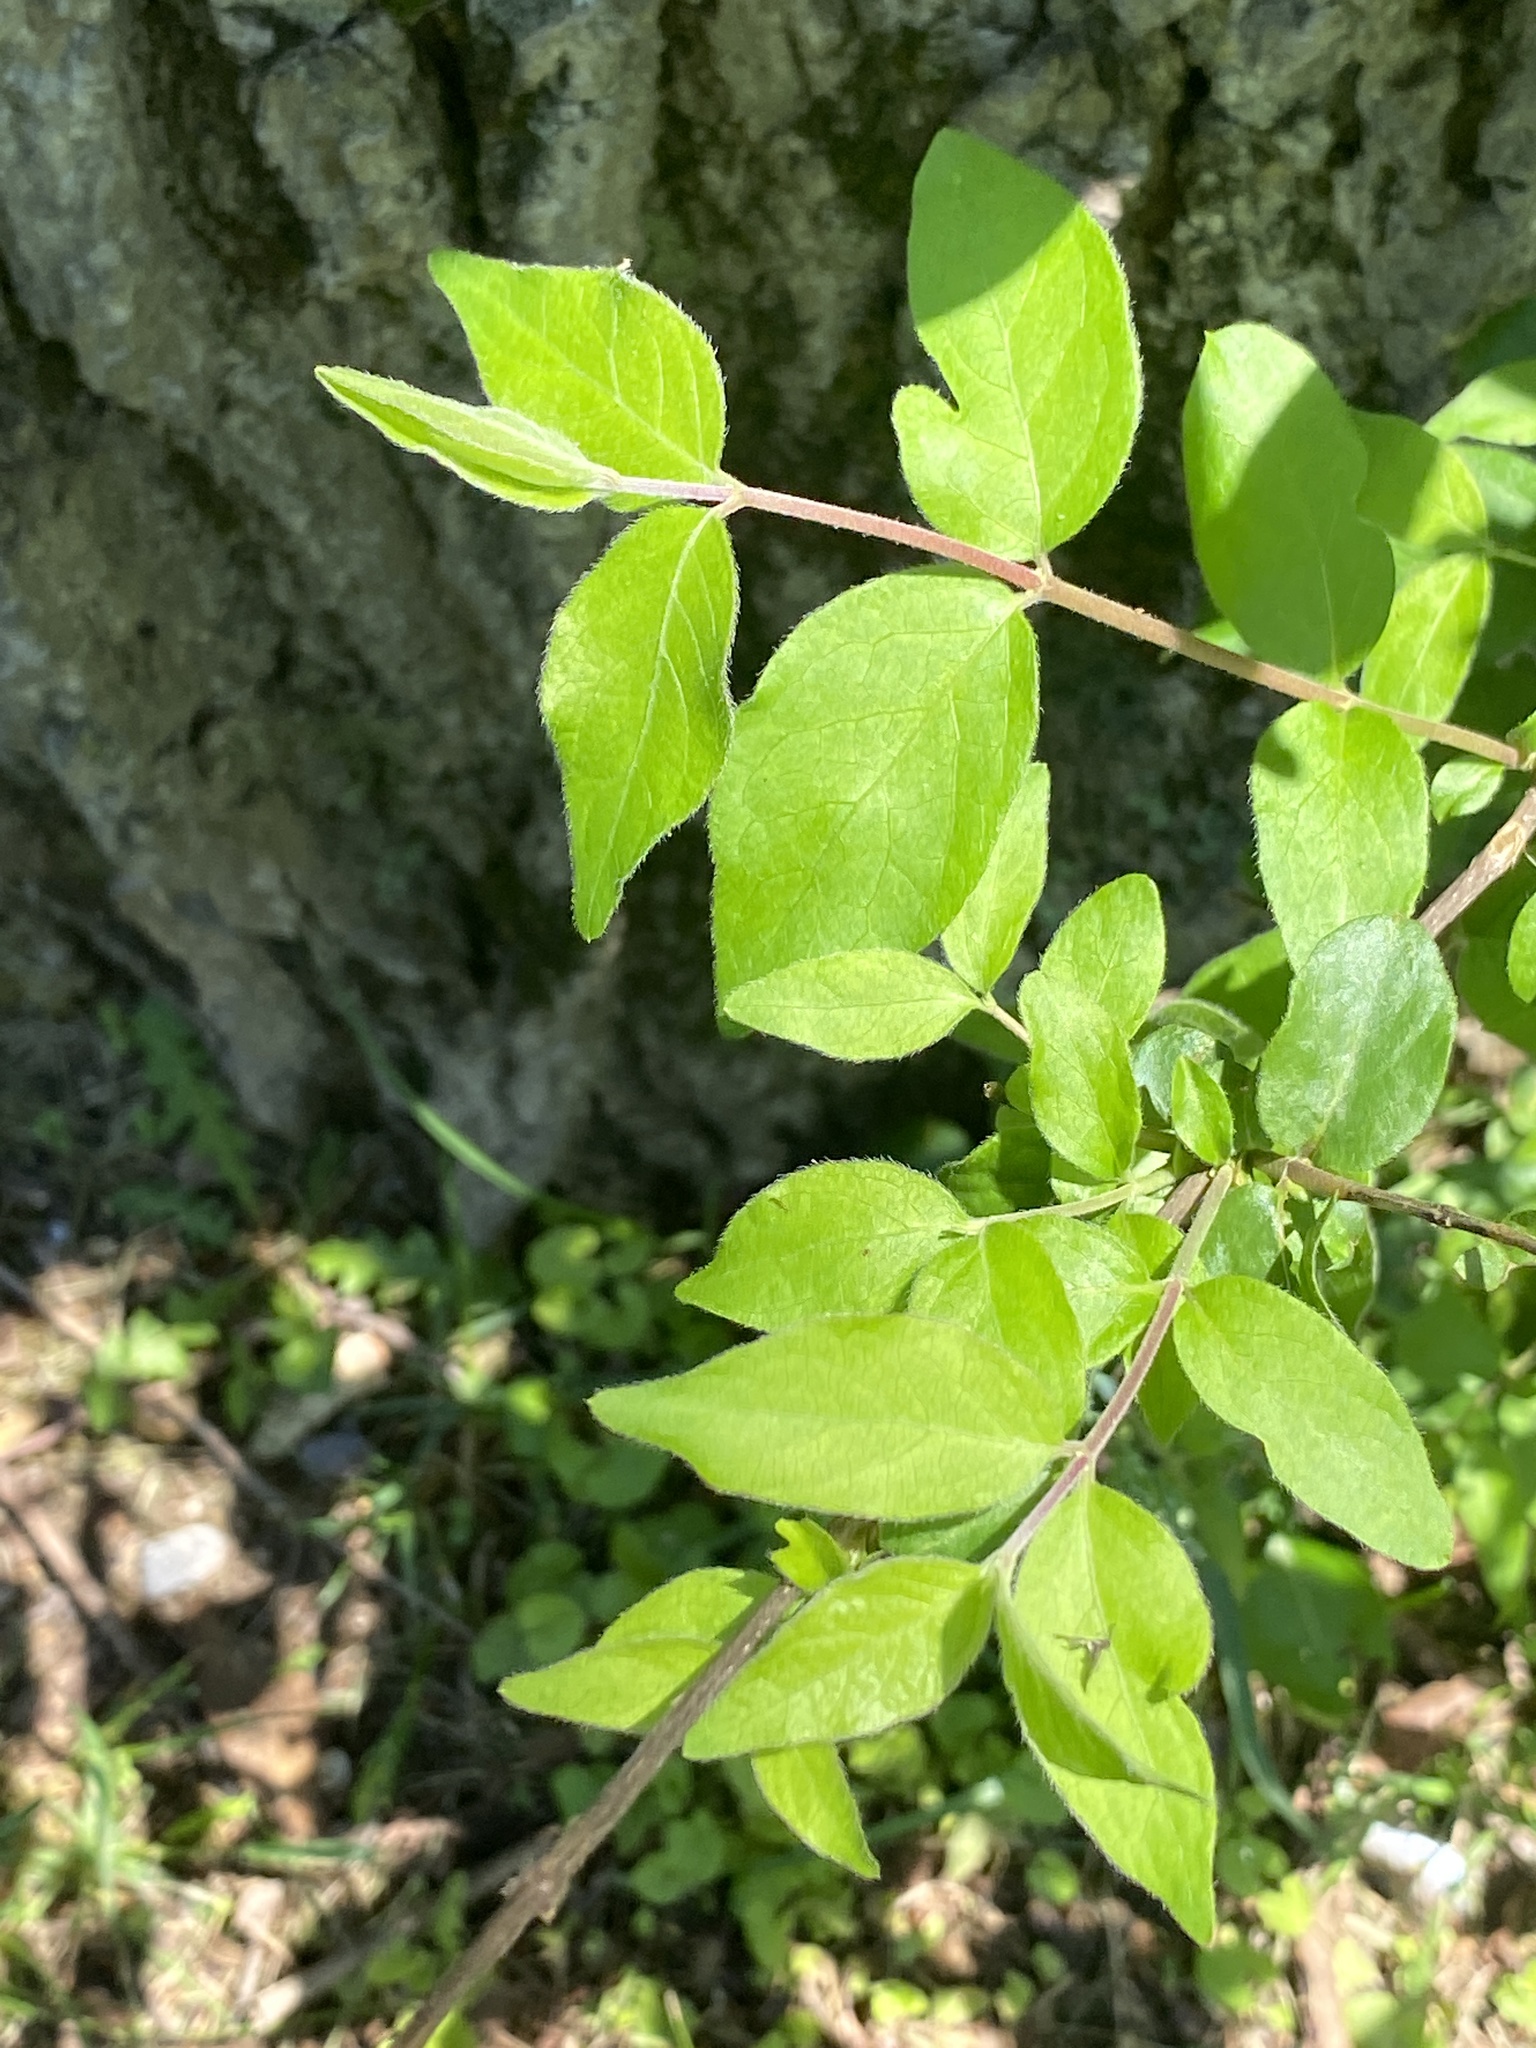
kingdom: Plantae
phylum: Tracheophyta
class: Magnoliopsida
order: Dipsacales
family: Caprifoliaceae
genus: Lonicera
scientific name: Lonicera maackii
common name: Amur honeysuckle
